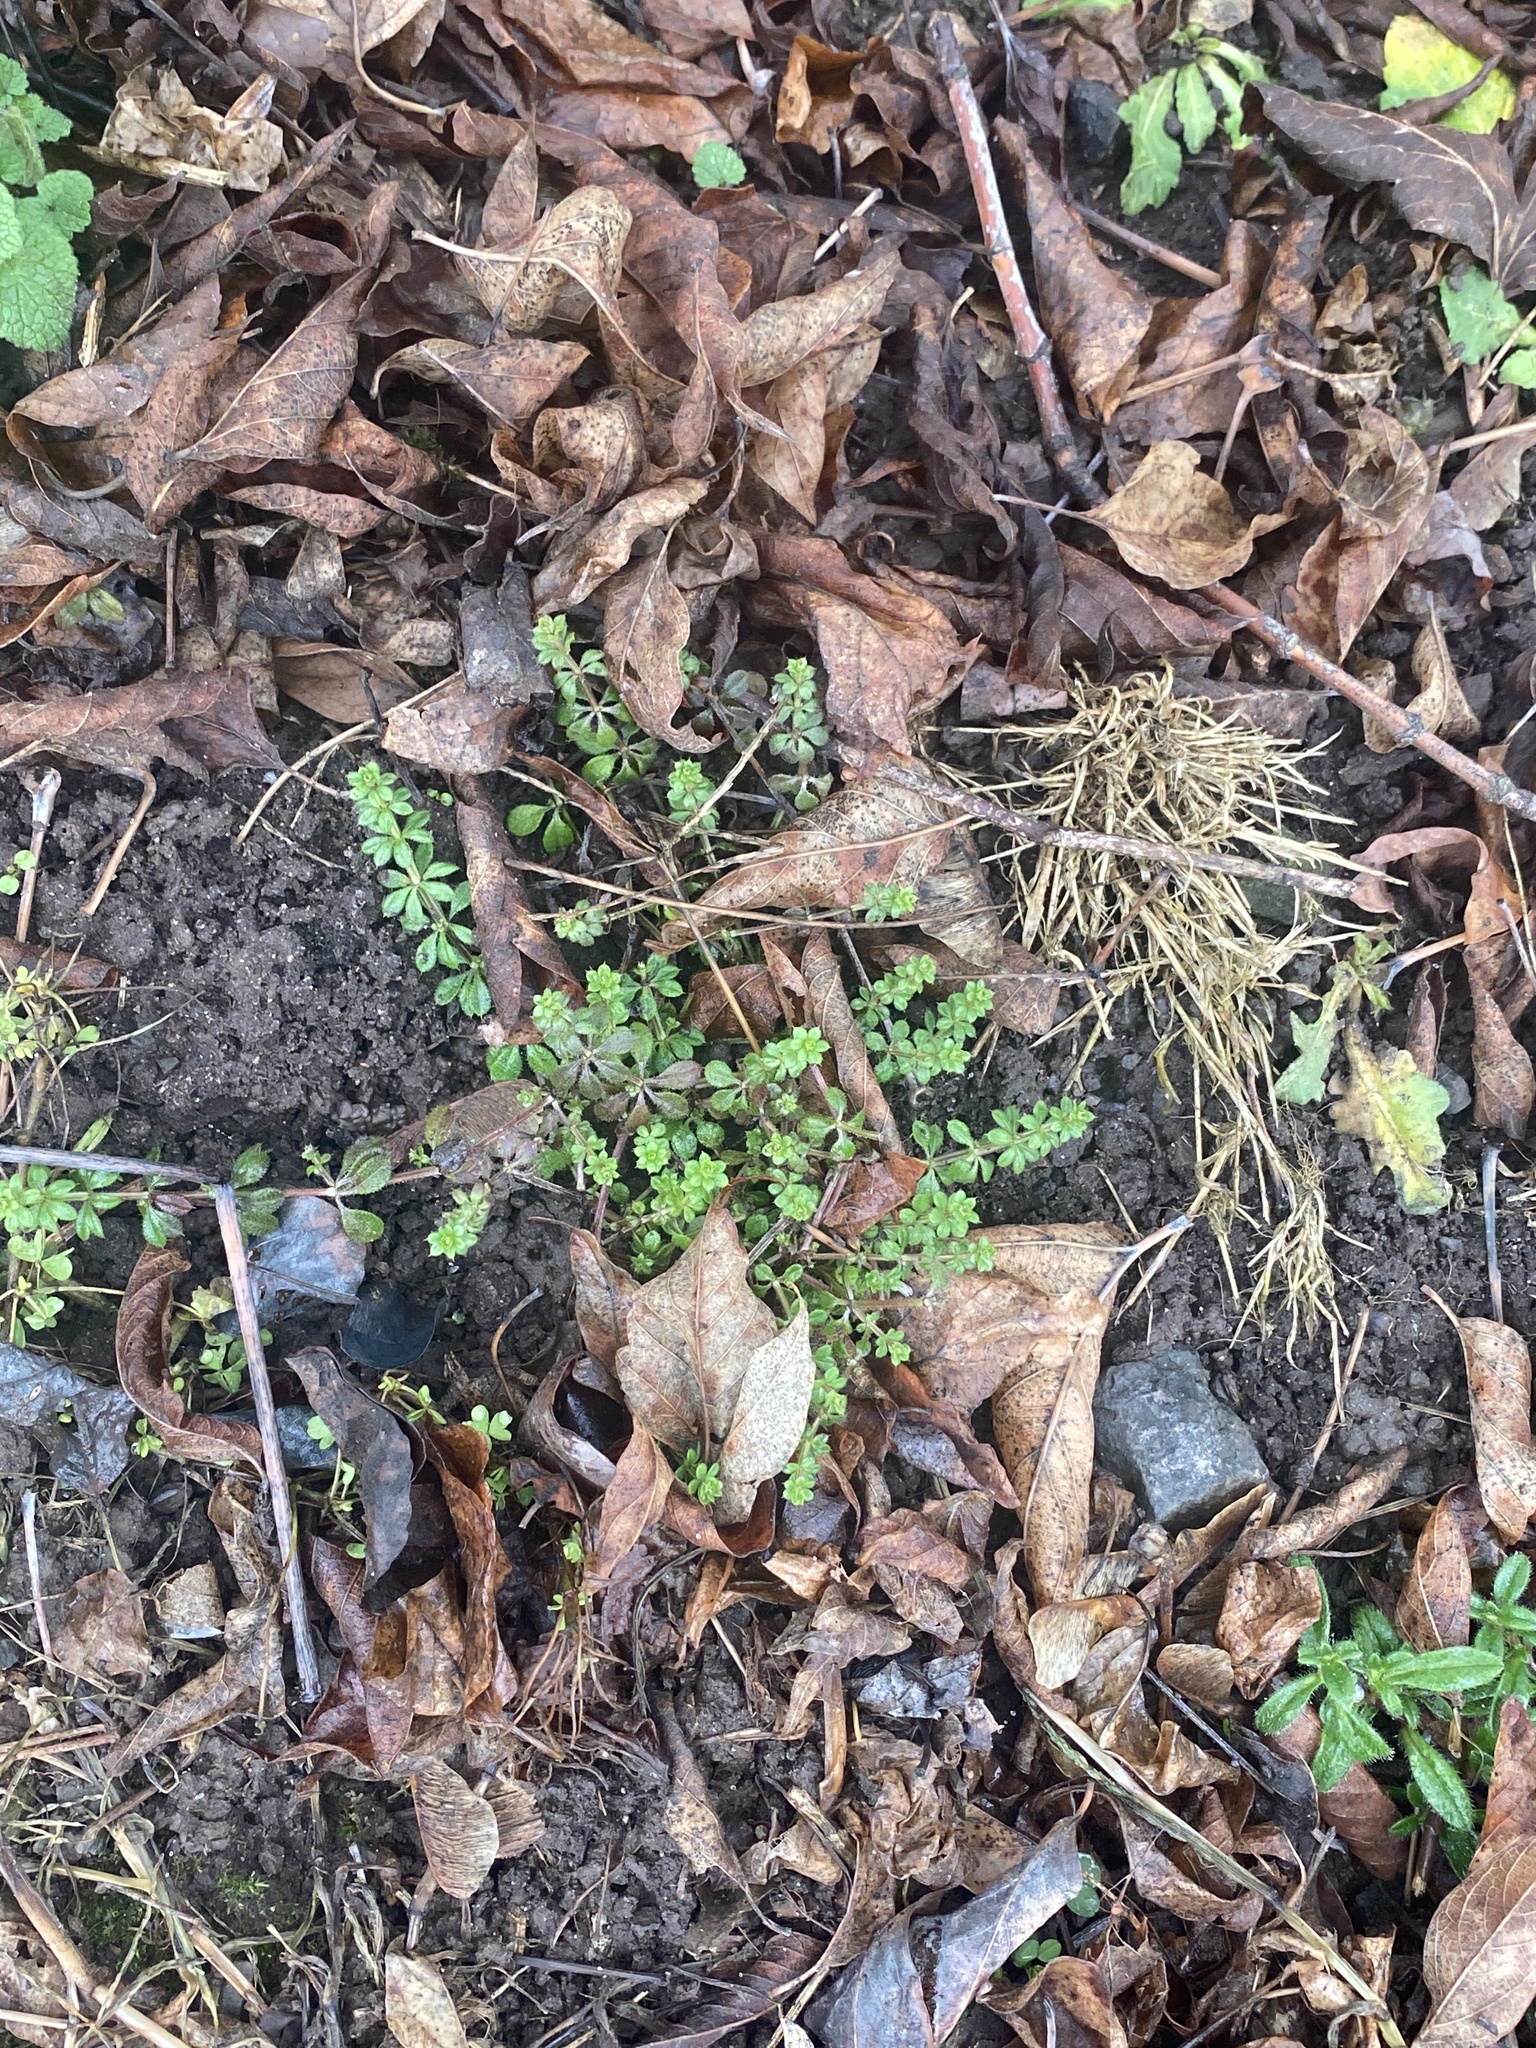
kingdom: Plantae
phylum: Tracheophyta
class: Magnoliopsida
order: Gentianales
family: Rubiaceae
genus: Galium
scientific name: Galium aparine
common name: Cleavers
